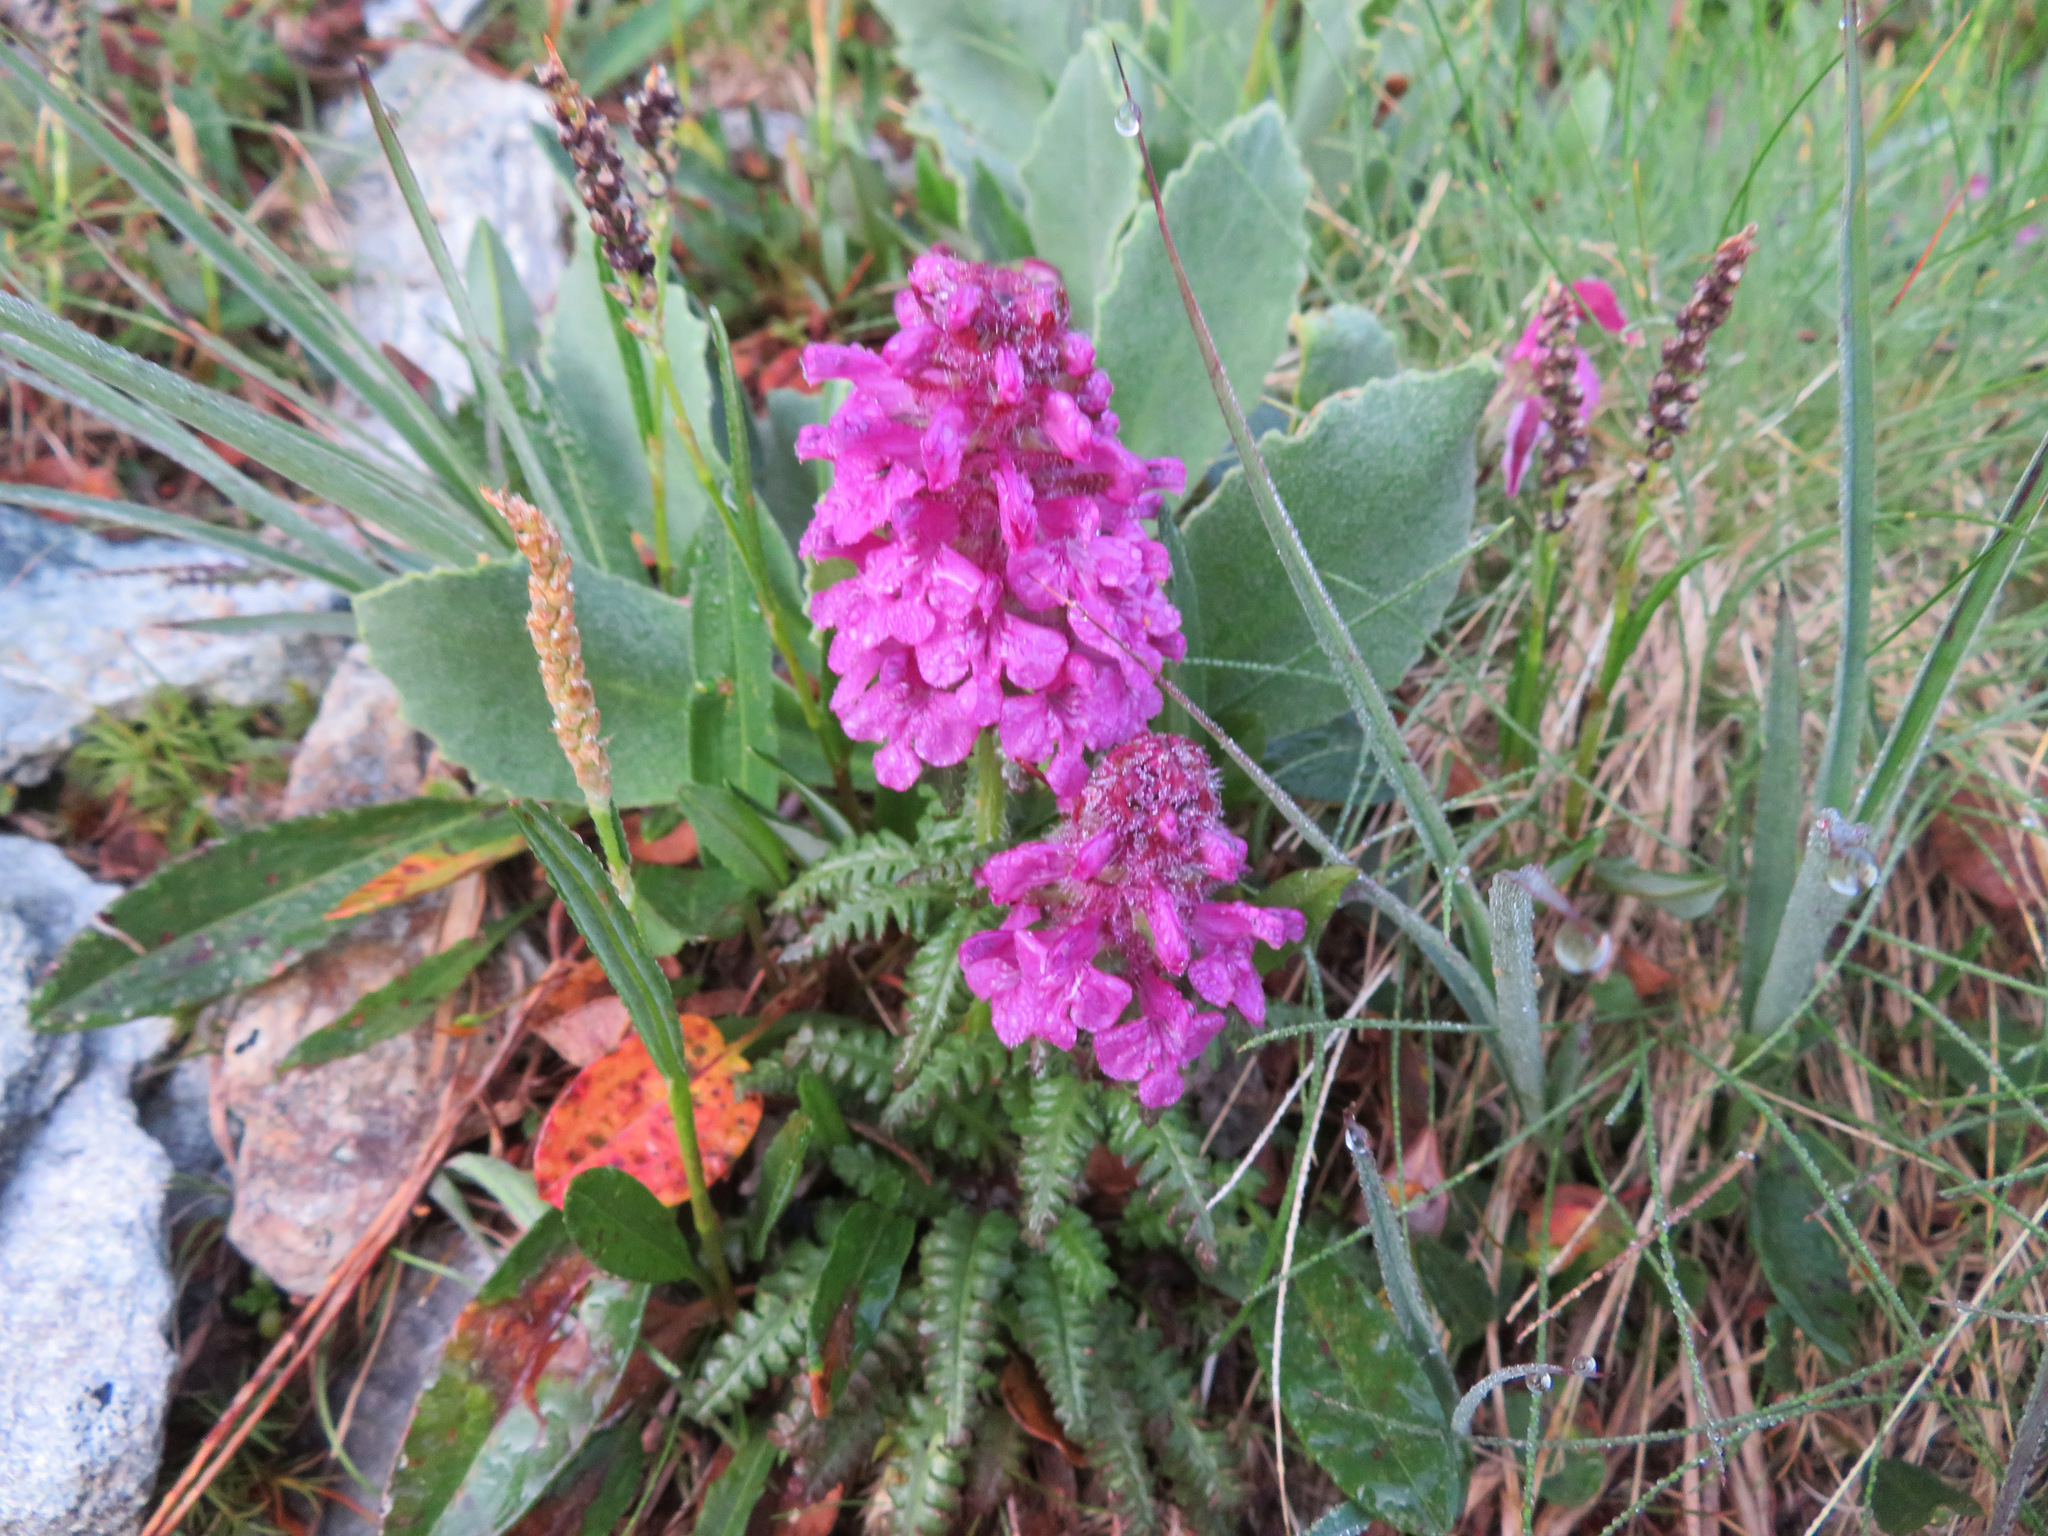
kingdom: Plantae
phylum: Tracheophyta
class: Magnoliopsida
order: Lamiales
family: Orobanchaceae
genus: Pedicularis
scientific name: Pedicularis verticillata
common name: Whorled lousewort
